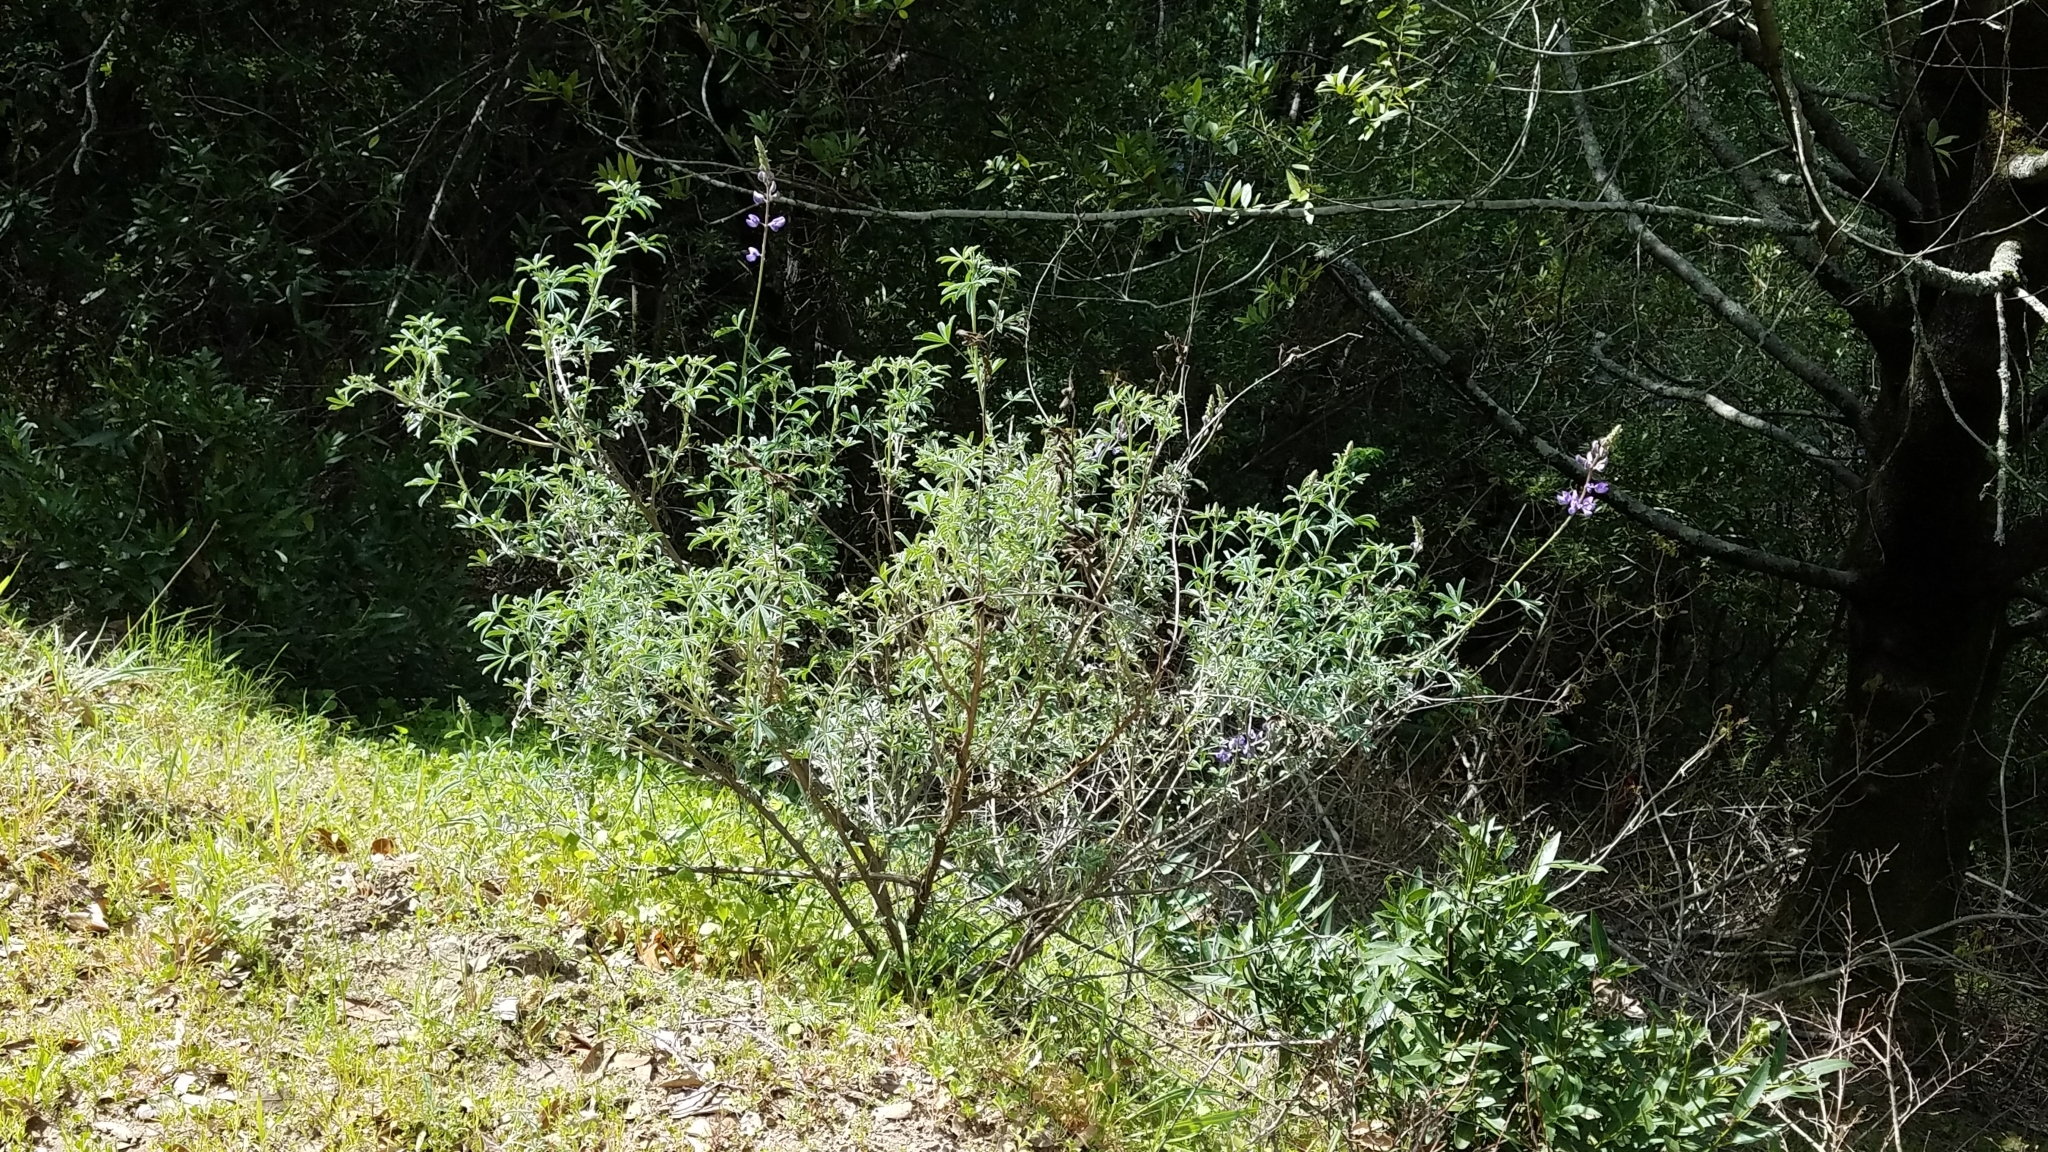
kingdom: Plantae
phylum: Tracheophyta
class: Magnoliopsida
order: Fabales
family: Fabaceae
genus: Lupinus
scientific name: Lupinus albifrons
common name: Foothill lupine
